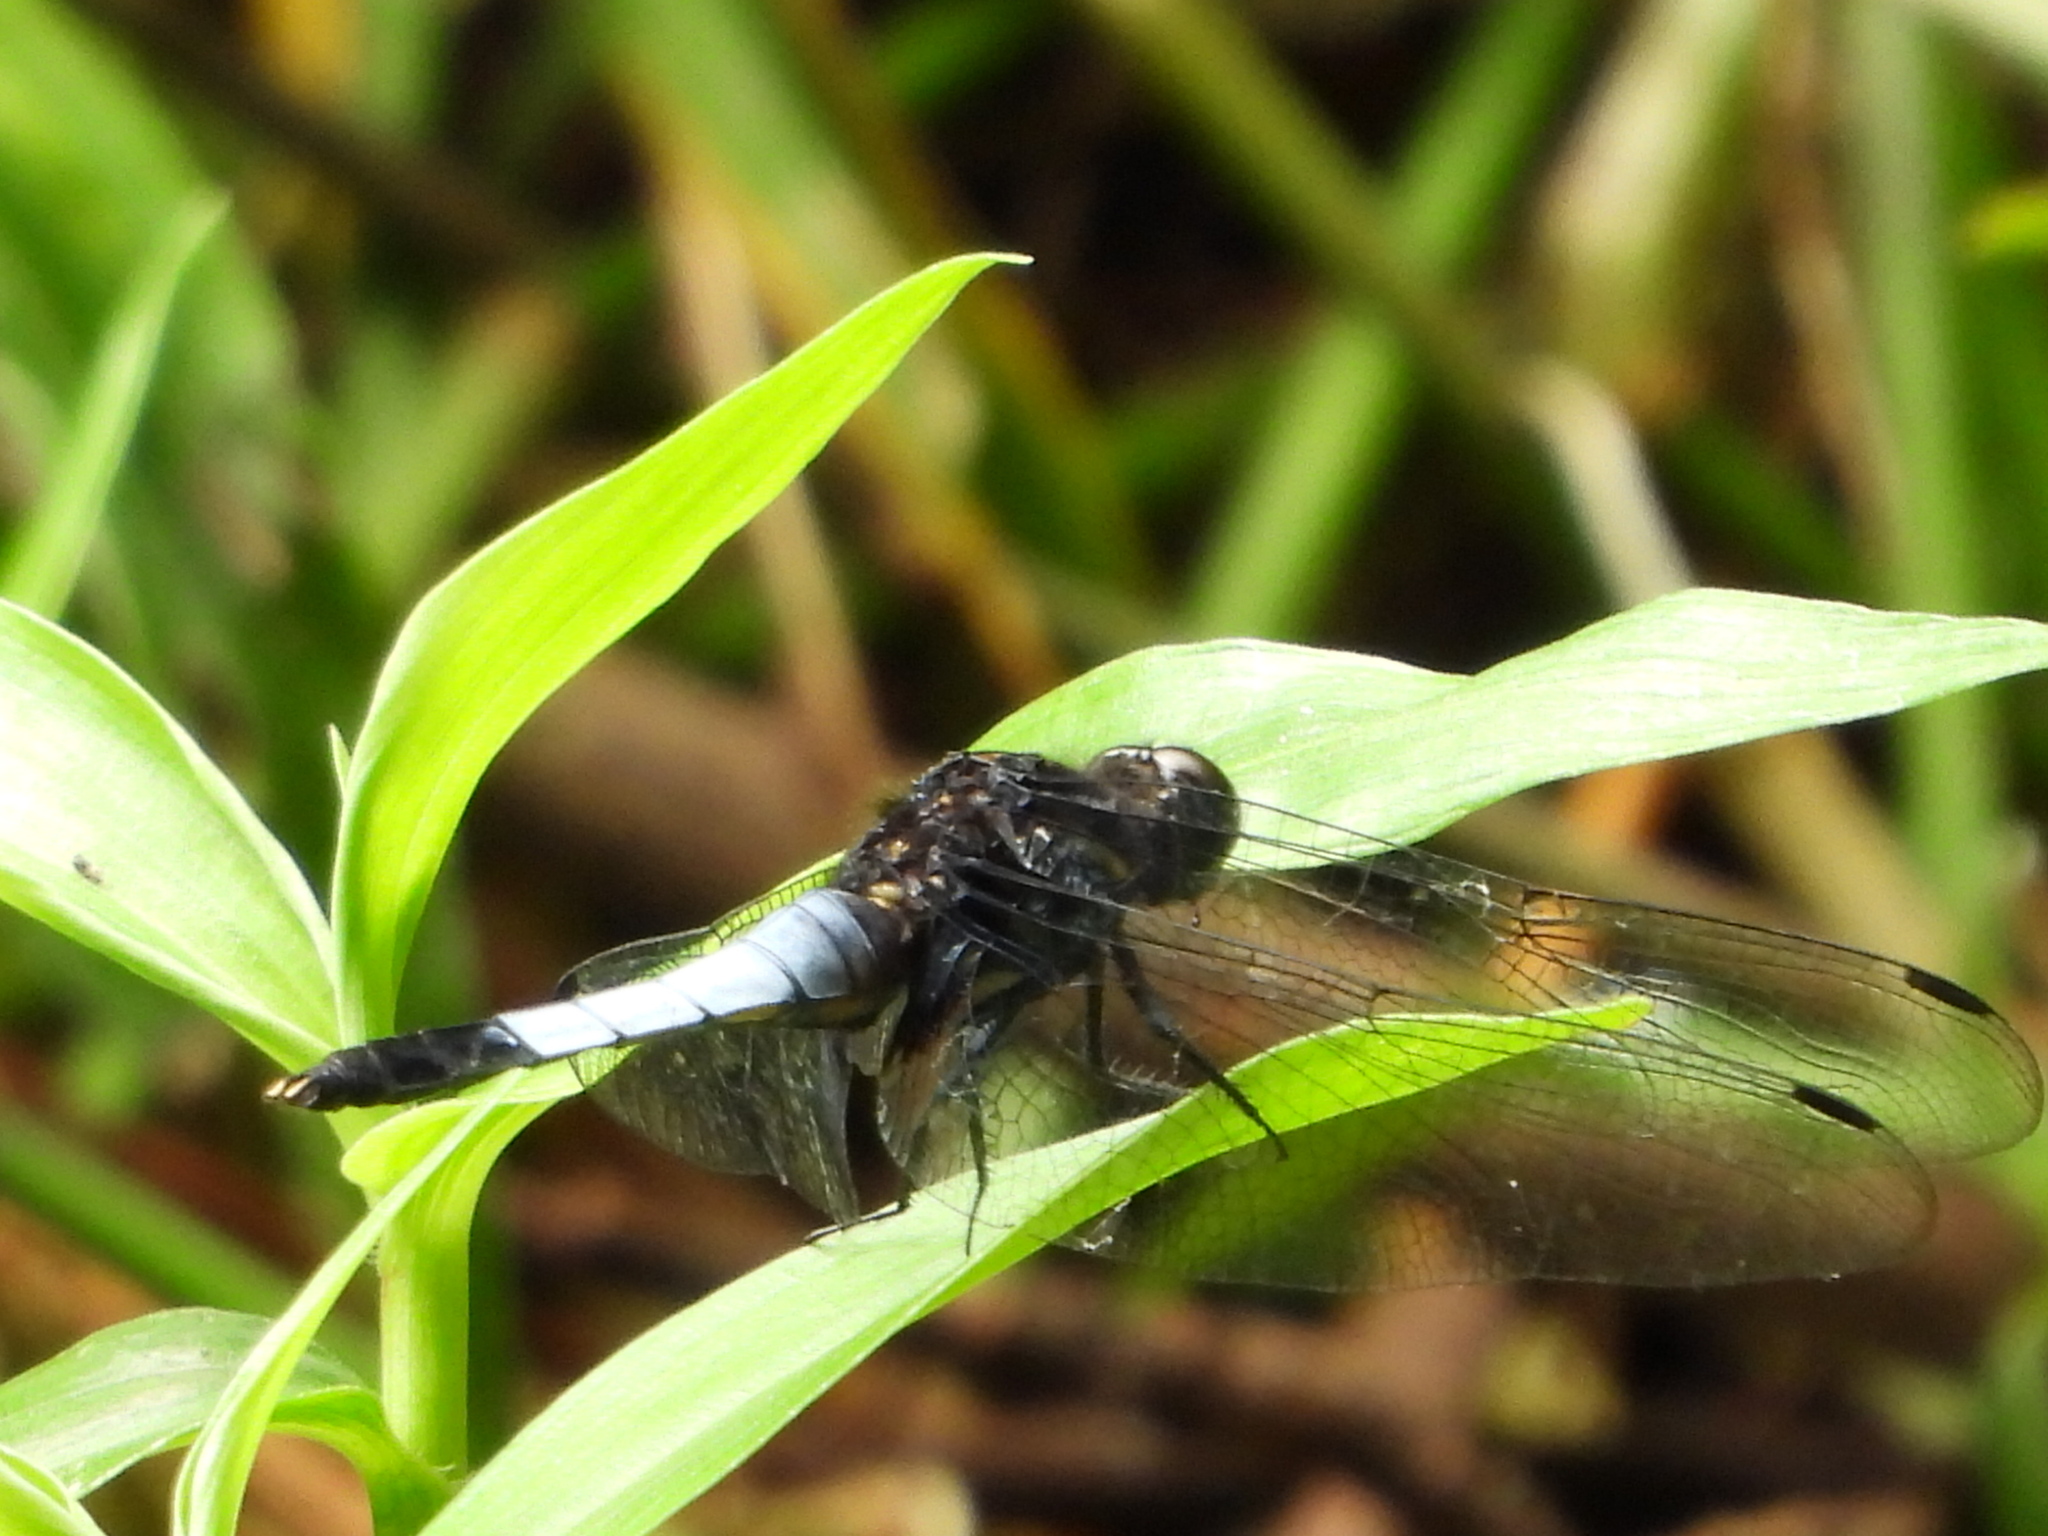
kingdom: Animalia
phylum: Arthropoda
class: Insecta
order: Odonata
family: Libellulidae
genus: Orthetrum
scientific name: Orthetrum triangulare
